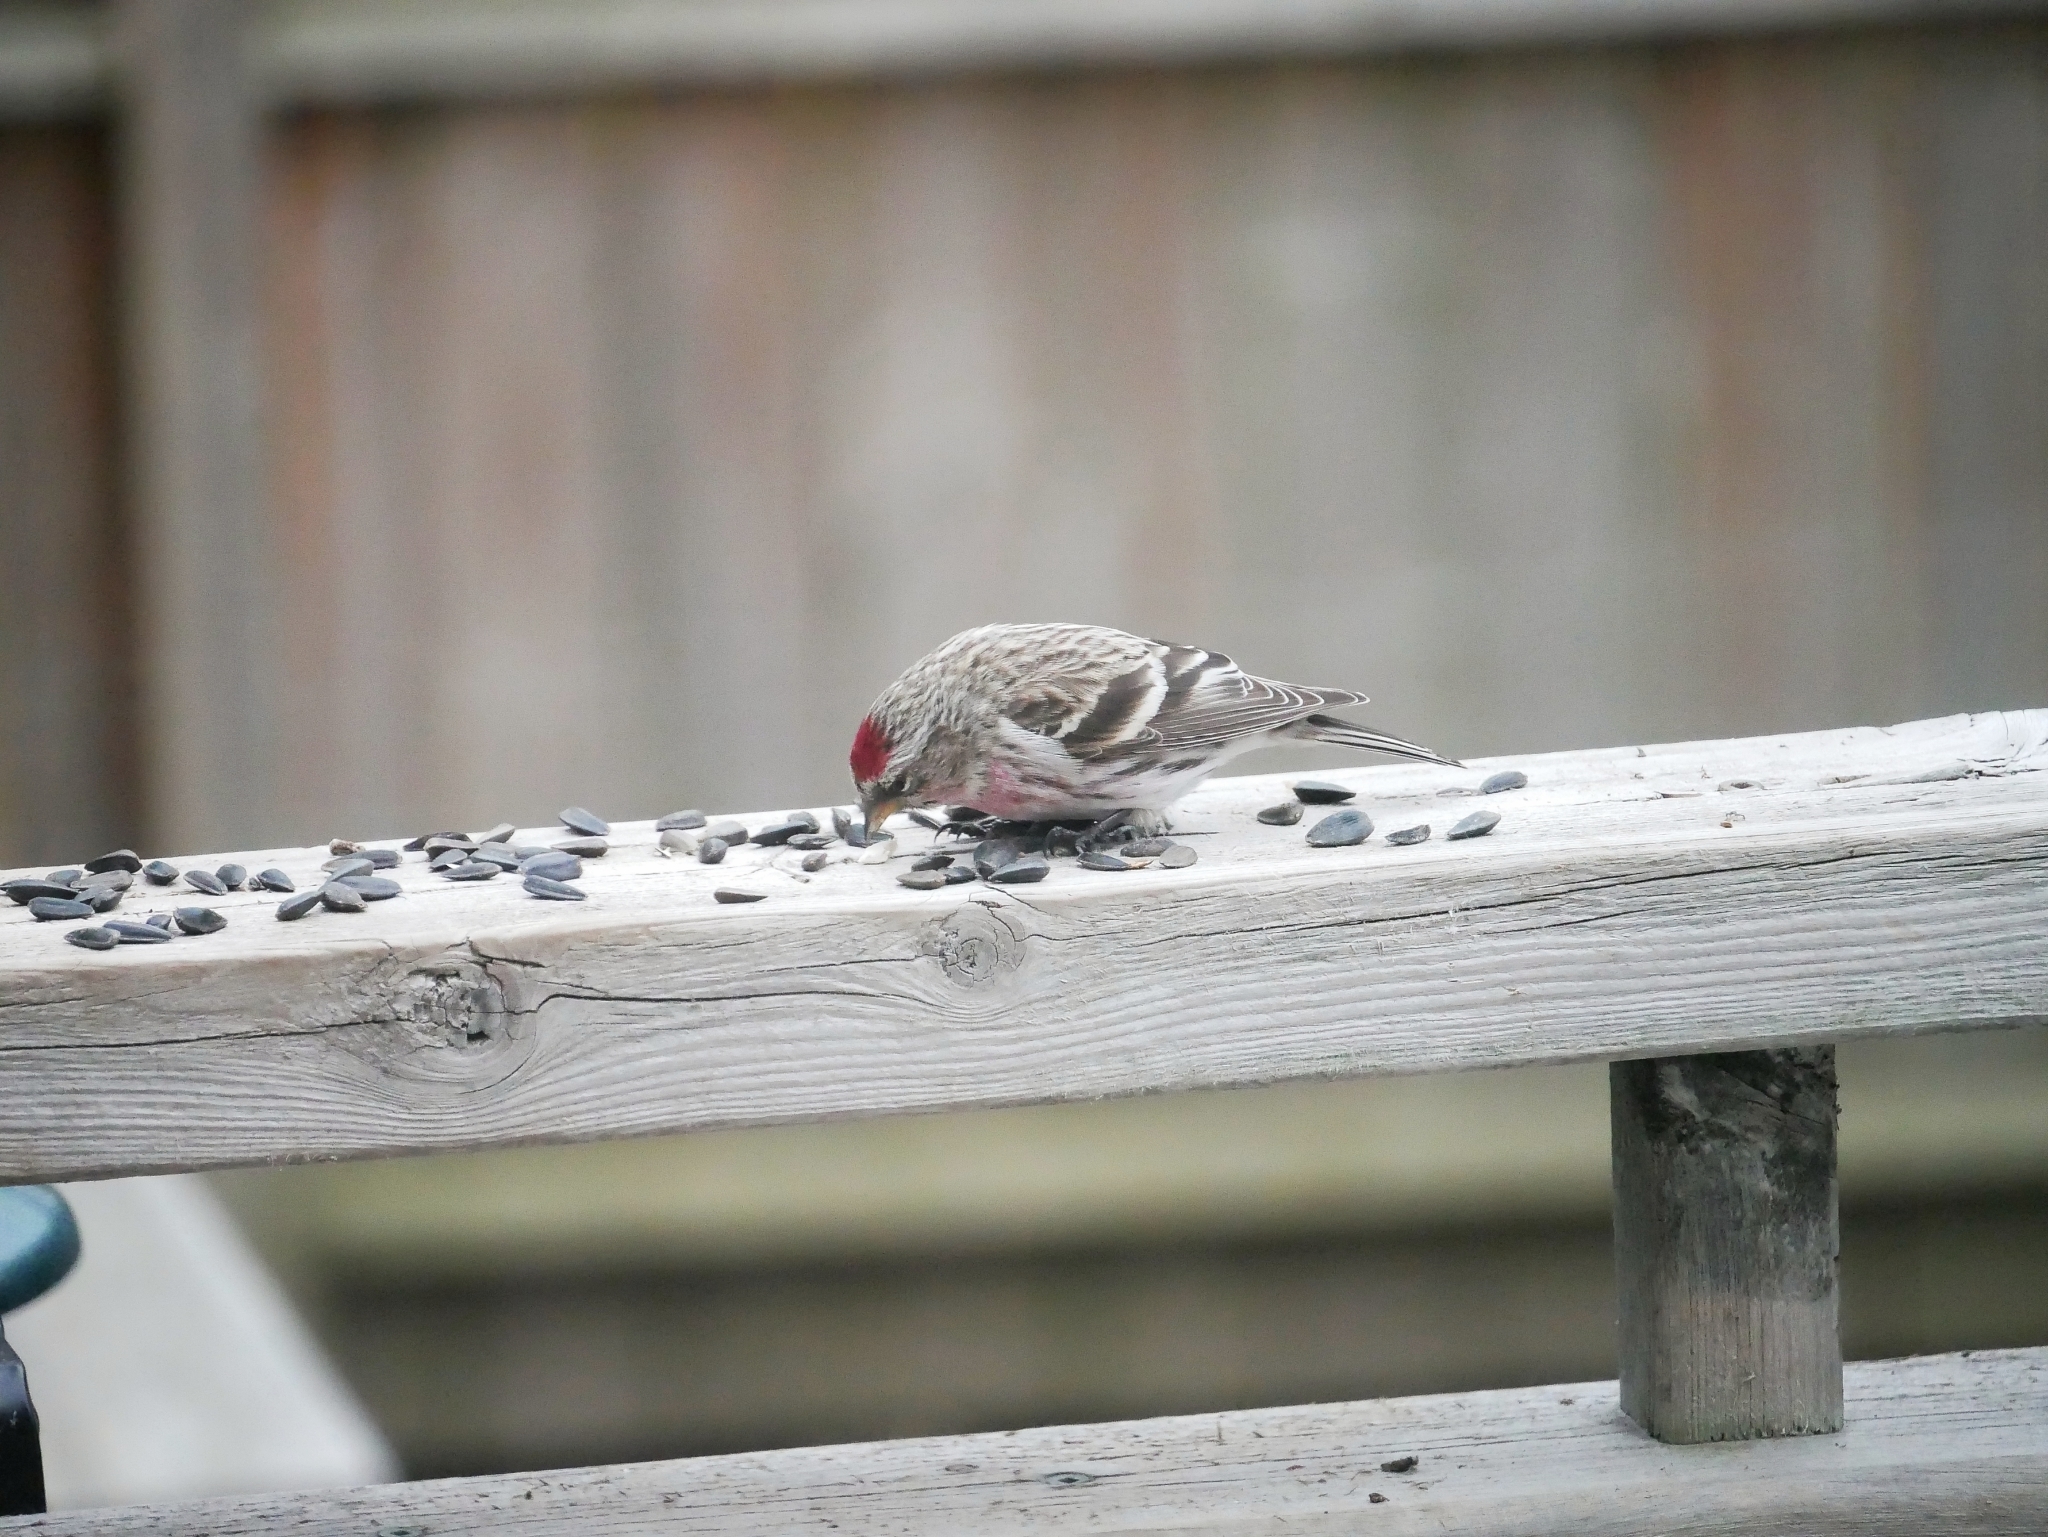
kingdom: Animalia
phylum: Chordata
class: Aves
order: Passeriformes
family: Fringillidae
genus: Acanthis
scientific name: Acanthis flammea
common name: Common redpoll
